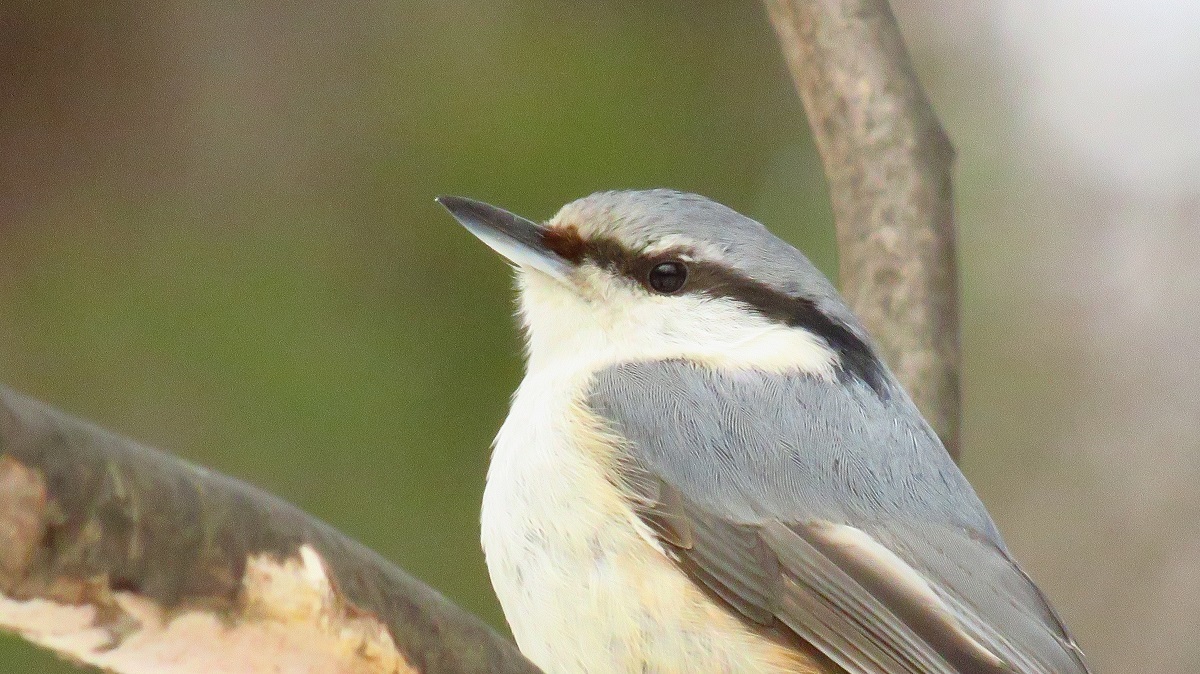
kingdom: Animalia
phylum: Chordata
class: Aves
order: Passeriformes
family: Sittidae
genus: Sitta
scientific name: Sitta europaea
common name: Eurasian nuthatch
